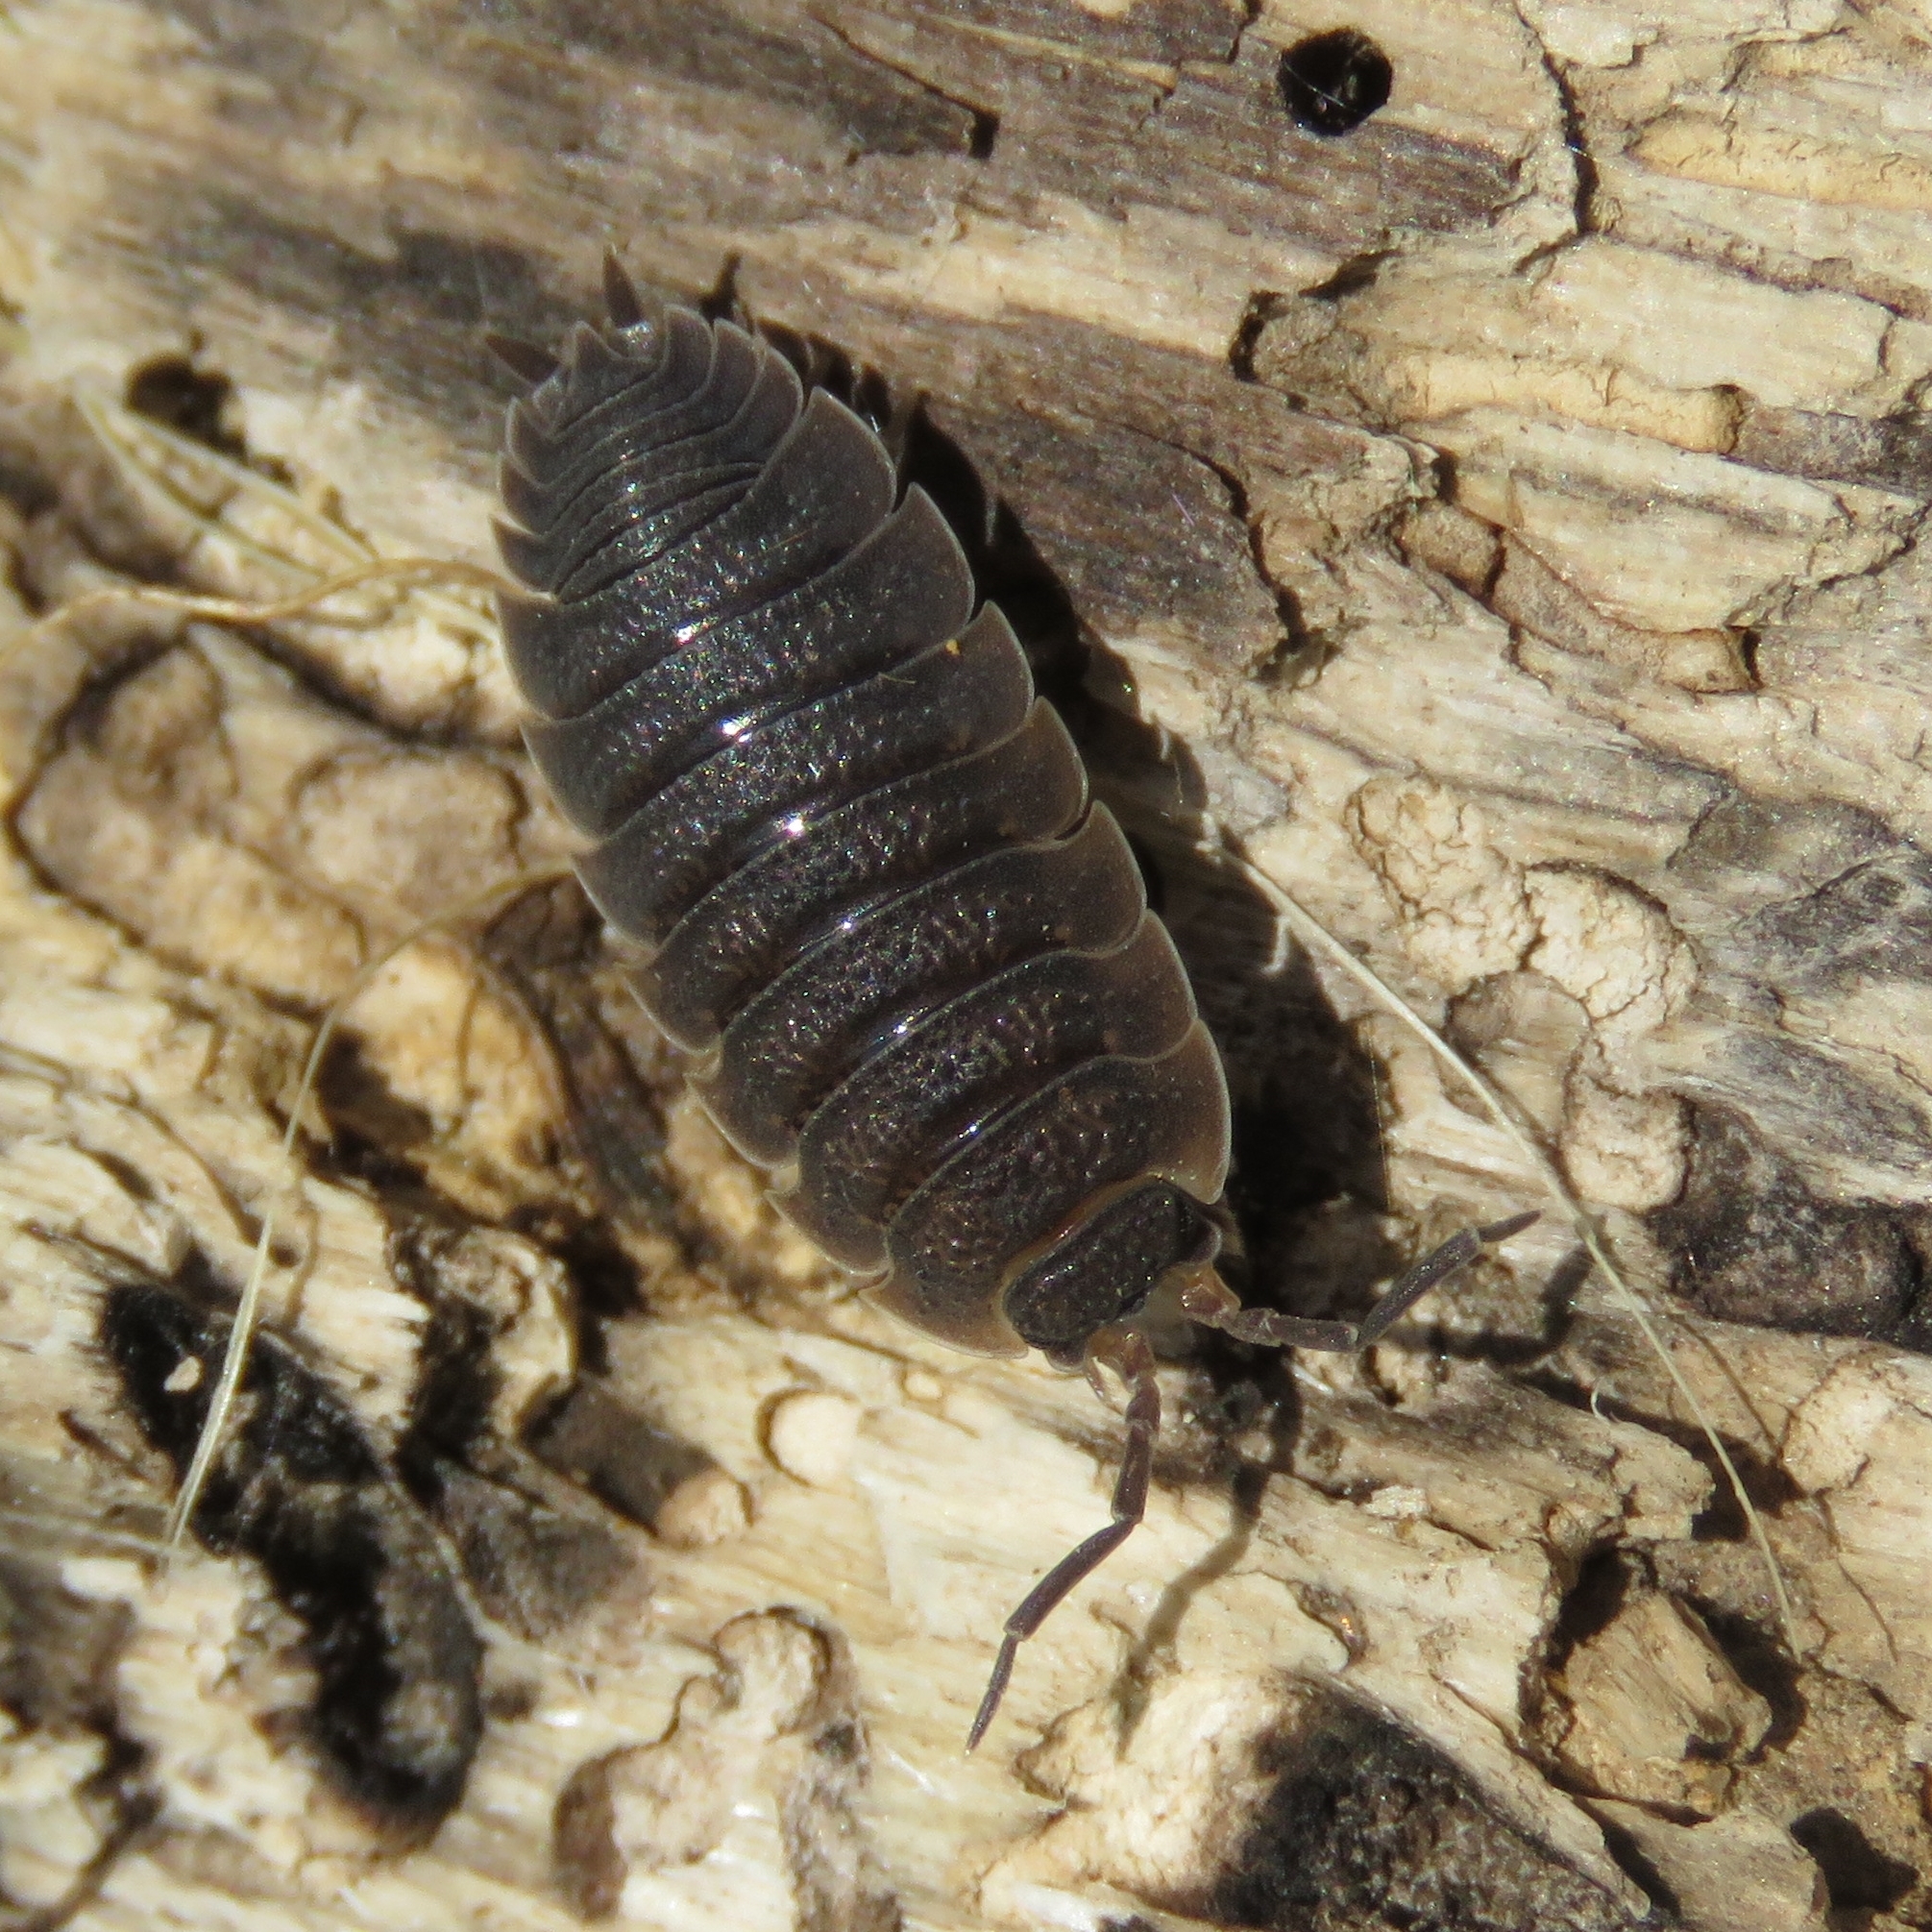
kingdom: Animalia
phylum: Arthropoda
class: Malacostraca
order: Isopoda
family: Porcellionidae
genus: Porcellio
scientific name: Porcellio scaber
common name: Common rough woodlouse
